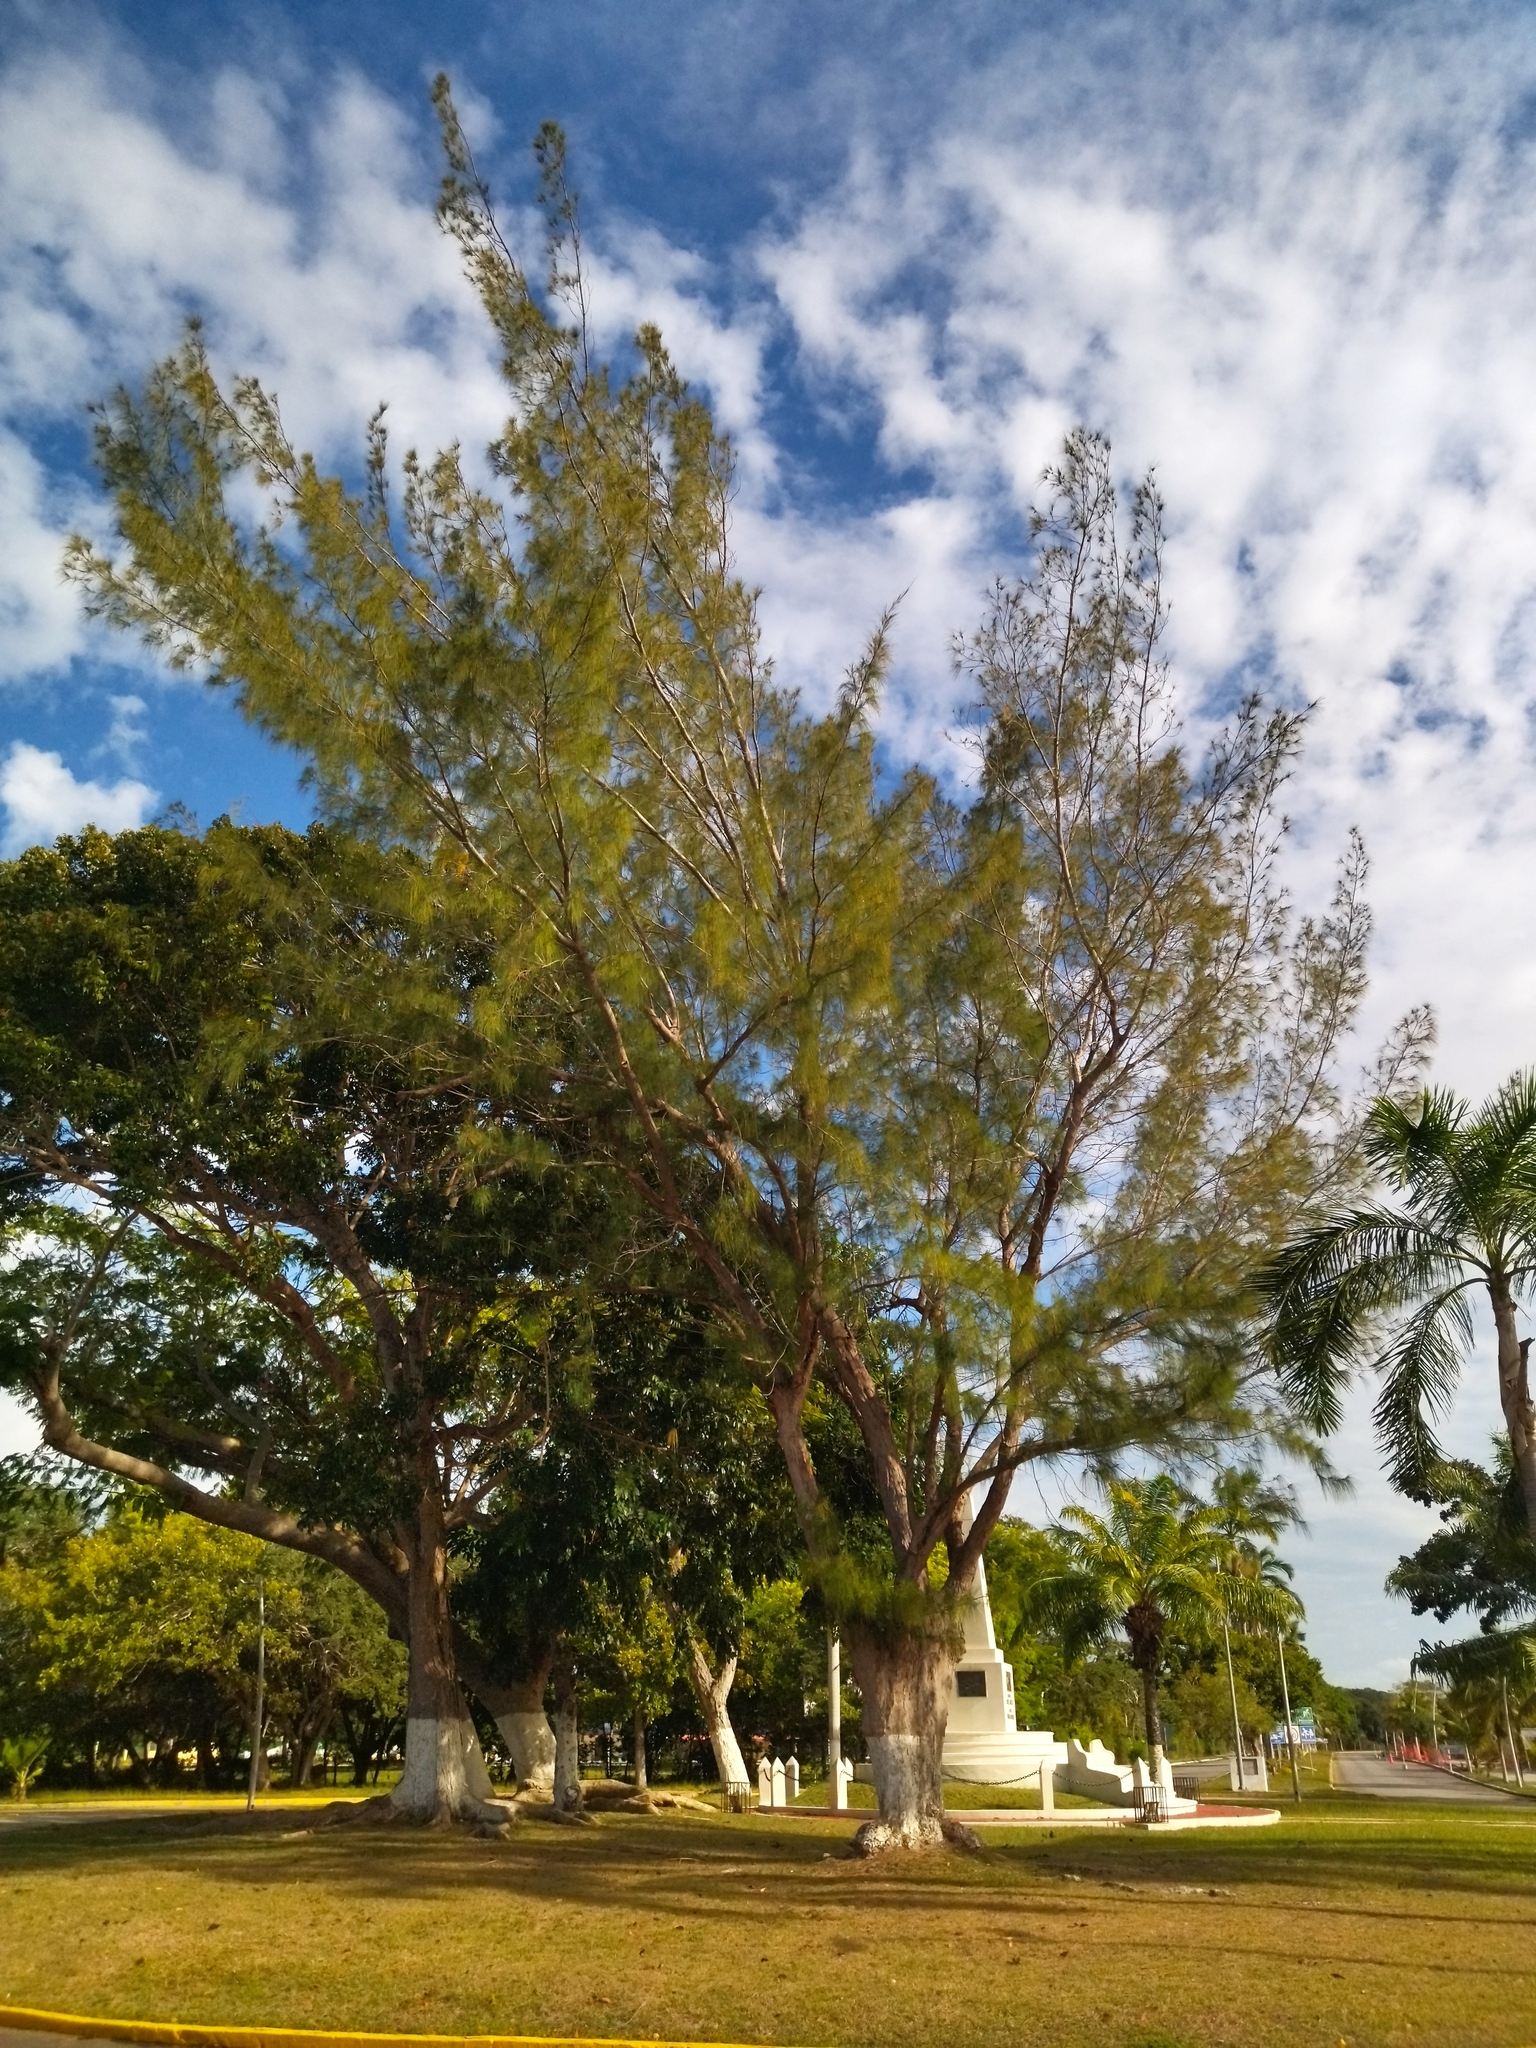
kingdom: Plantae
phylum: Tracheophyta
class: Magnoliopsida
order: Fagales
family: Casuarinaceae
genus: Casuarina
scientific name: Casuarina equisetifolia
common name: Beach sheoak
